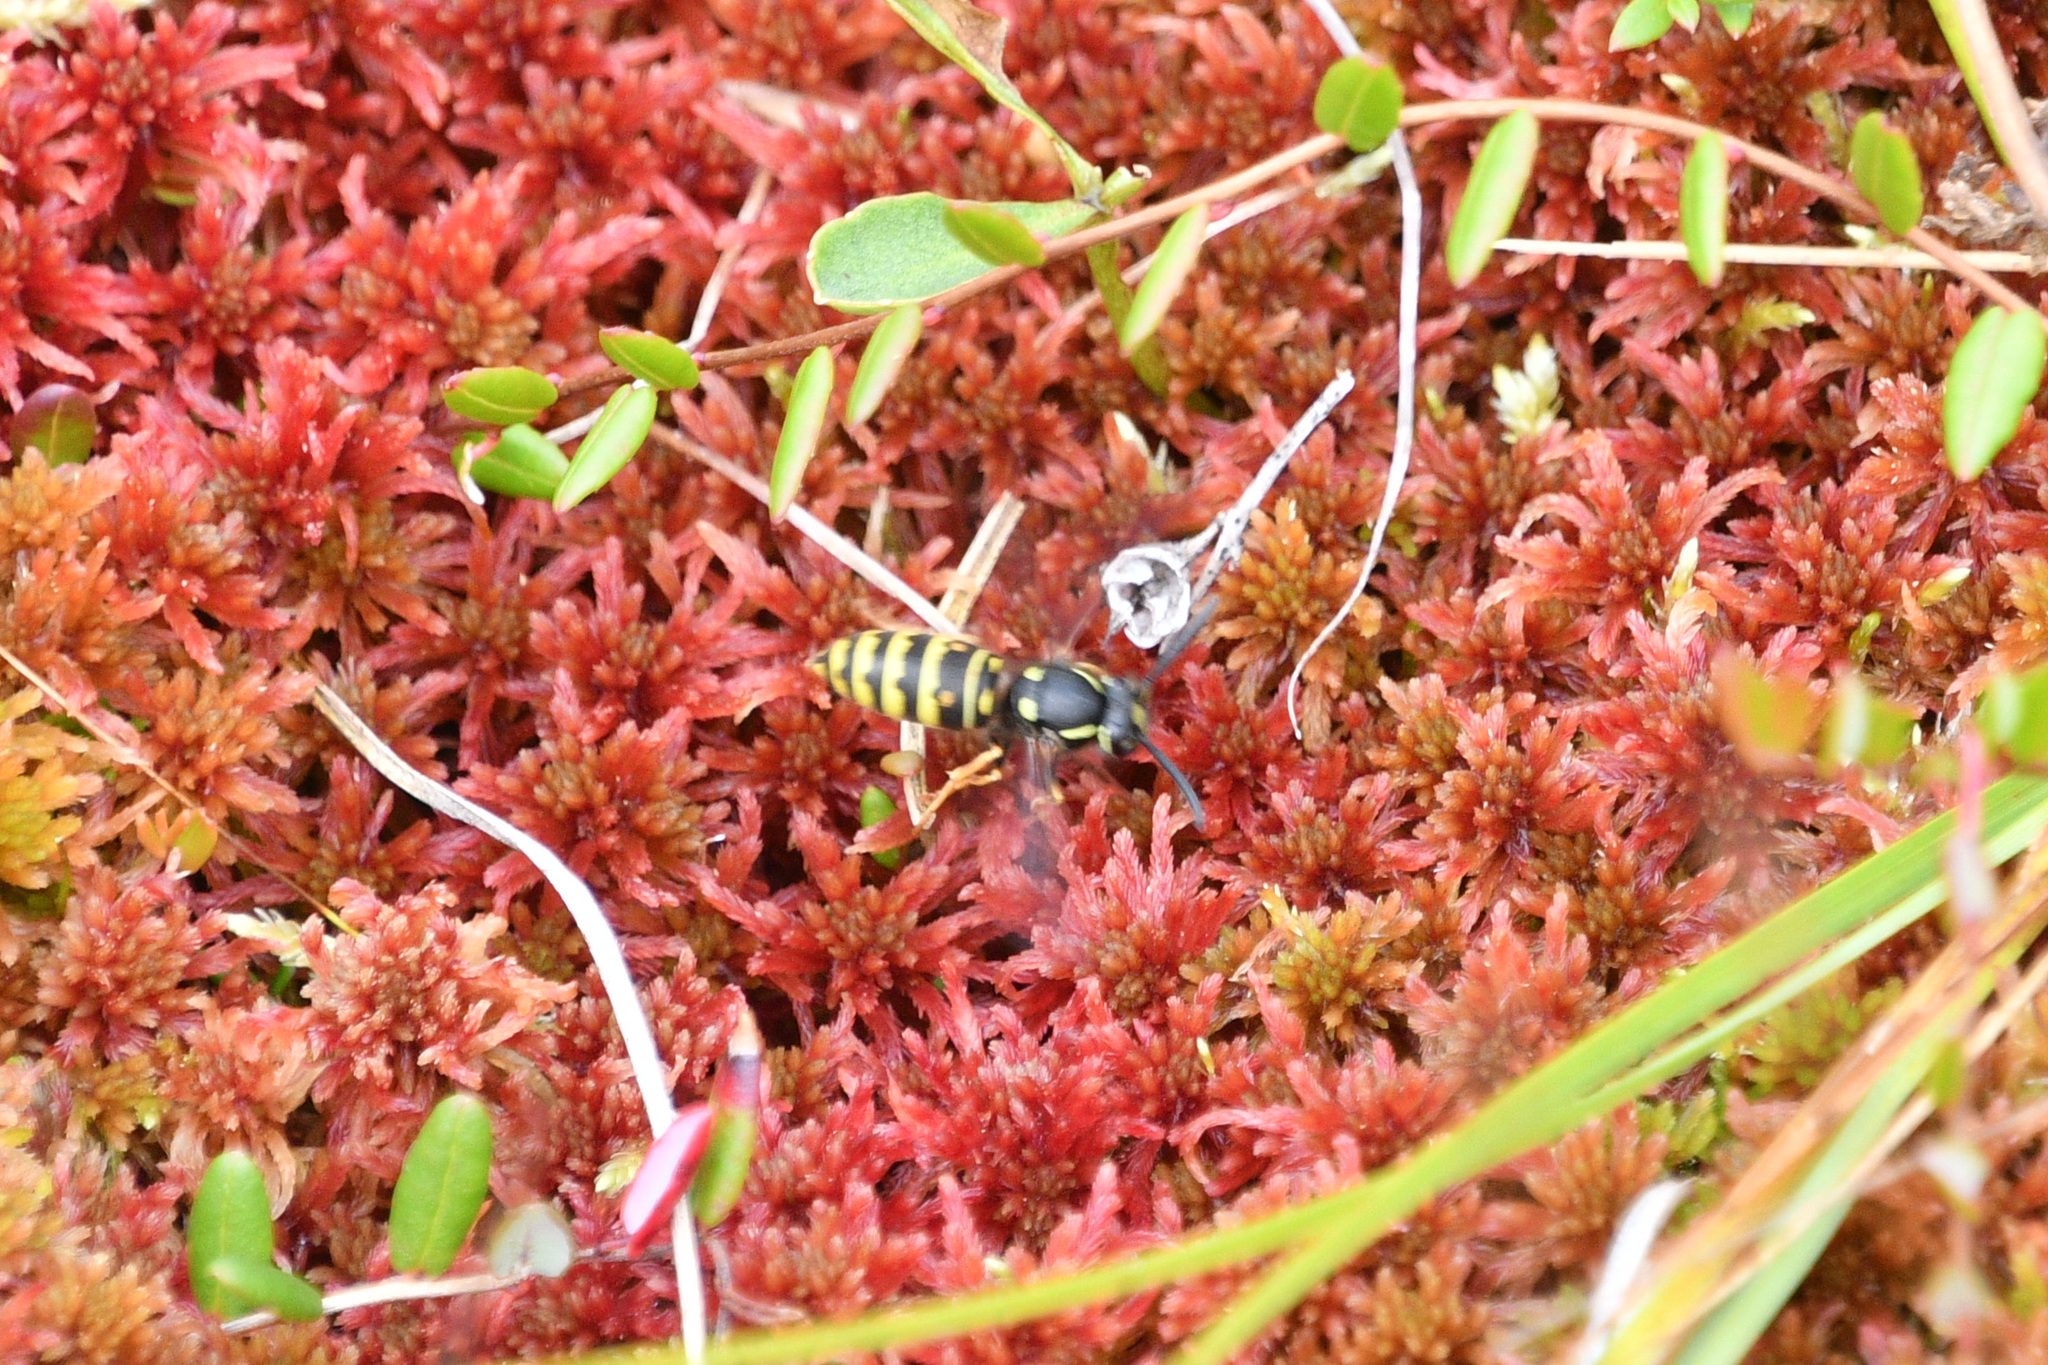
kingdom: Animalia
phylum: Arthropoda
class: Insecta
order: Hymenoptera
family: Vespidae
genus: Vespula
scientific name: Vespula acadica
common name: Forest yellowjacket
